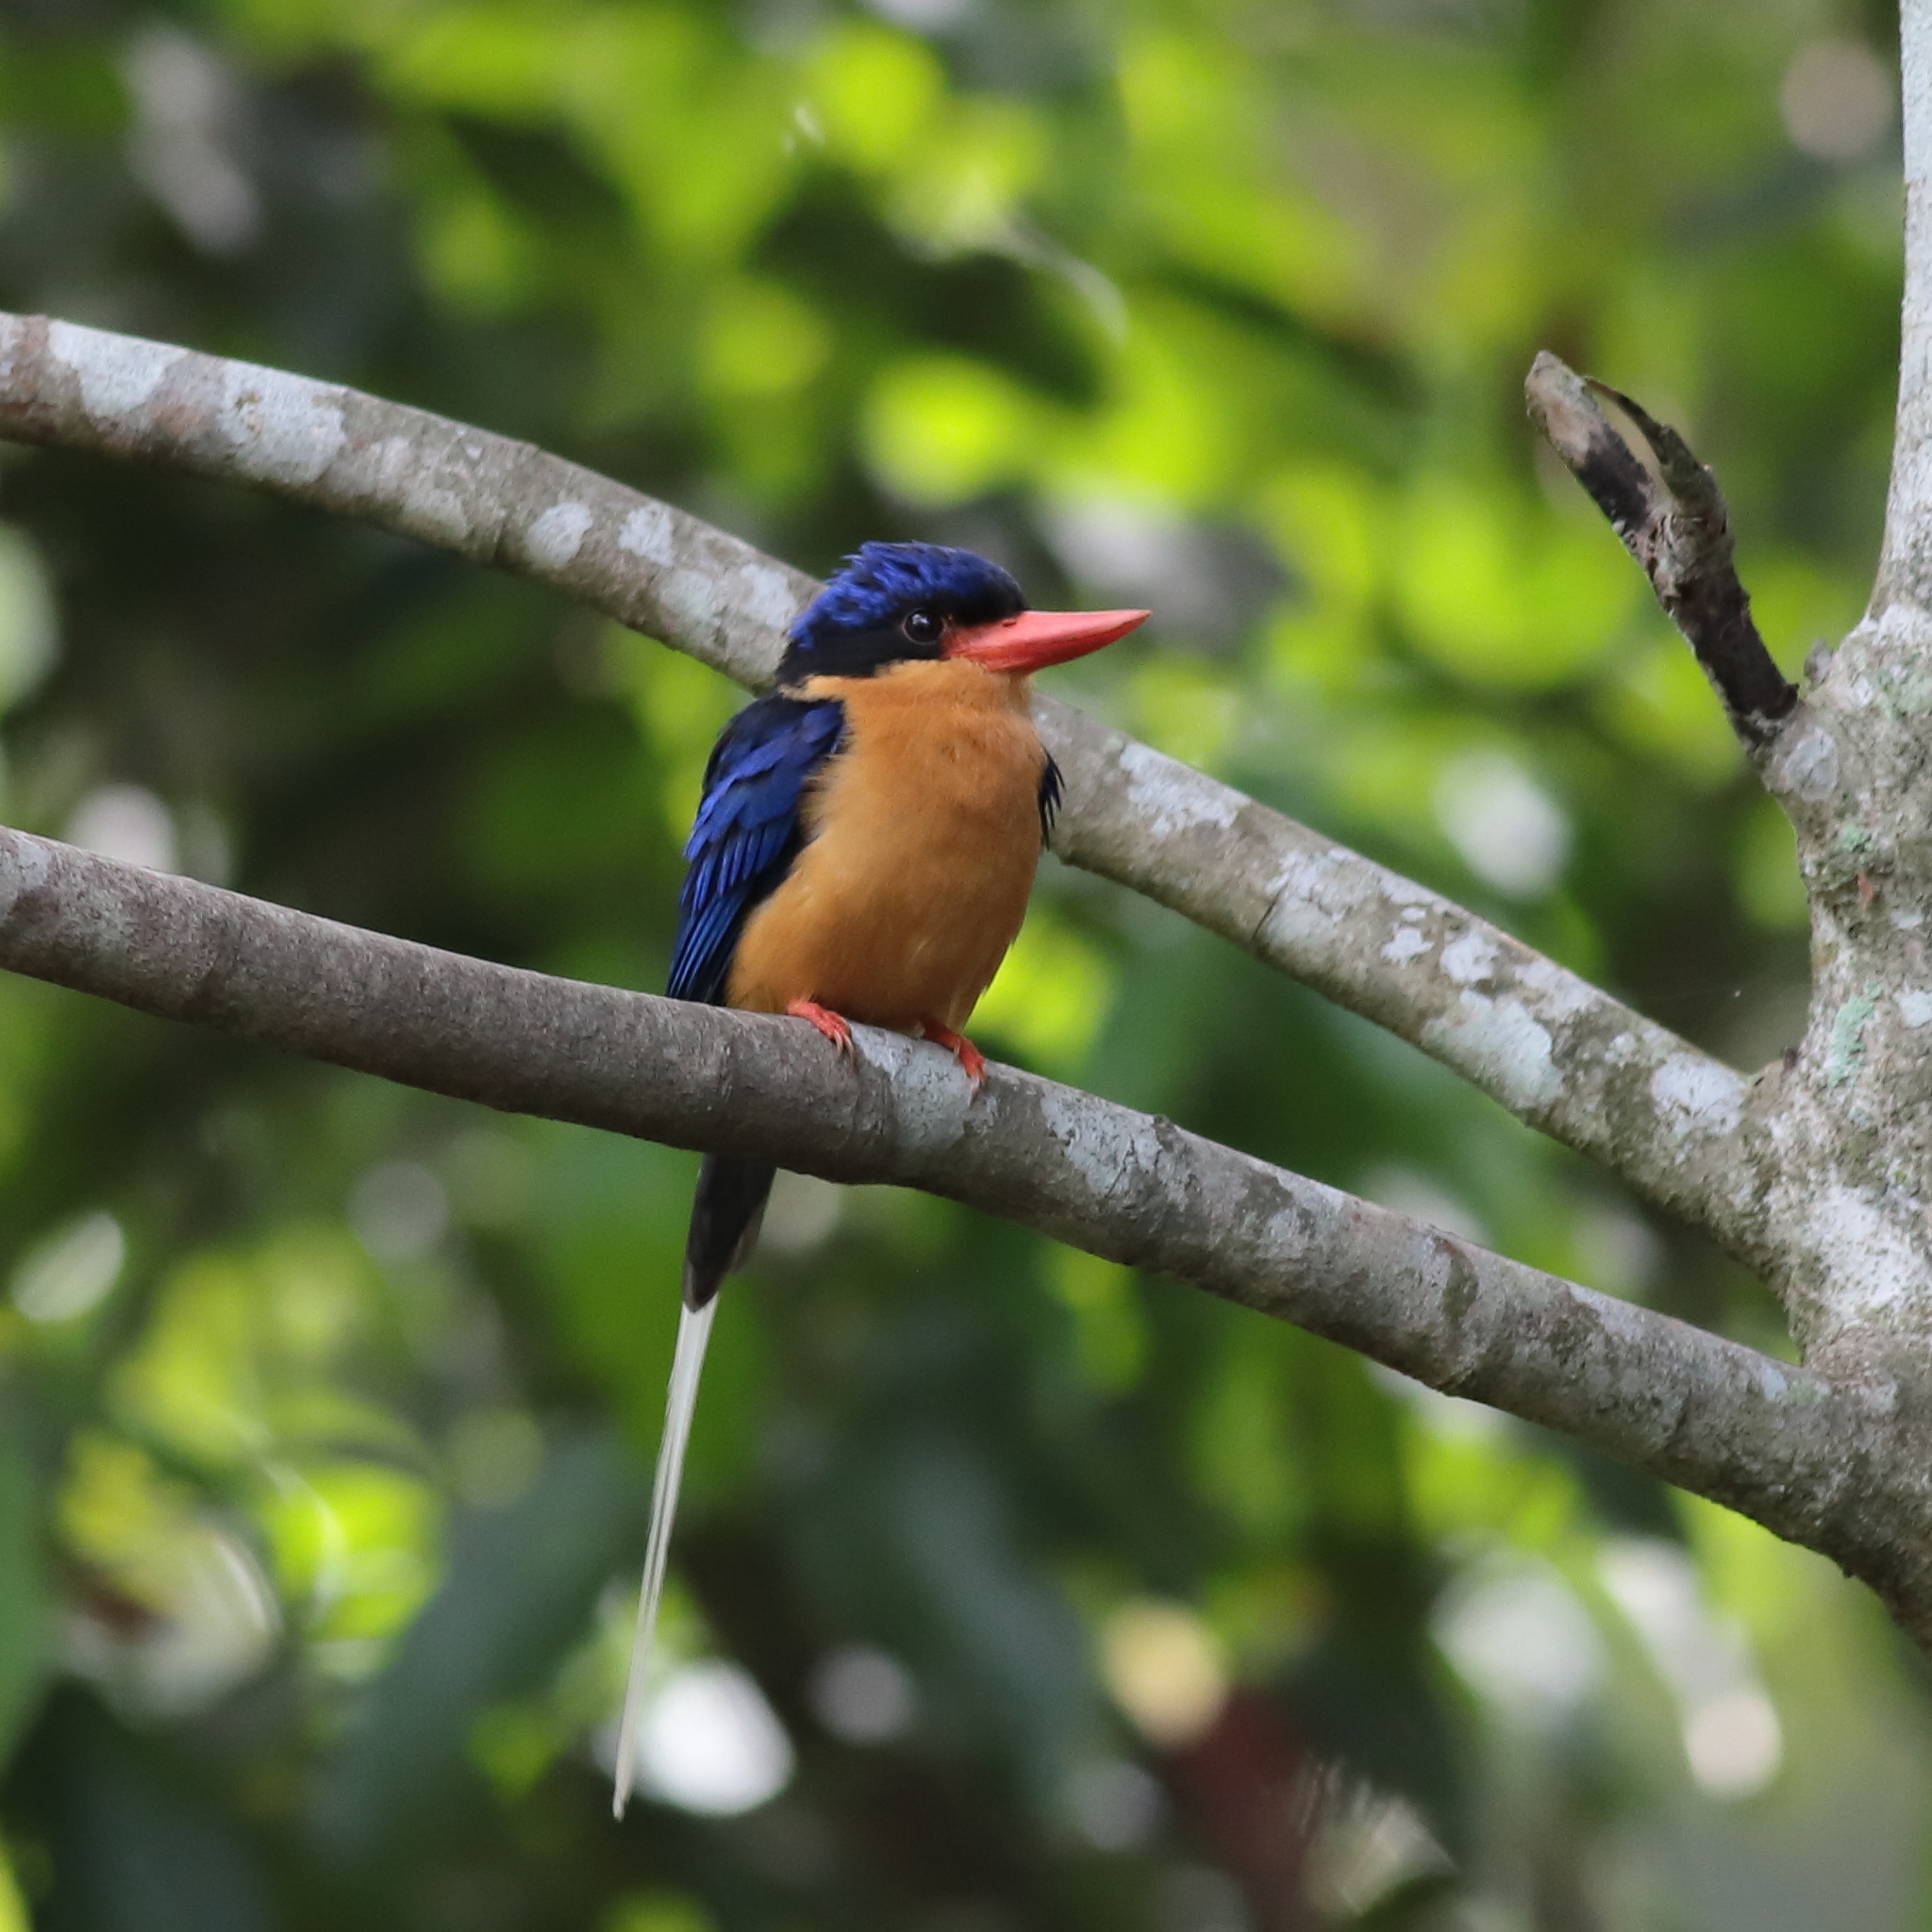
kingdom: Animalia
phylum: Chordata
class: Aves
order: Coraciiformes
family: Alcedinidae
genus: Tanysiptera
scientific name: Tanysiptera sylvia
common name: Buff-breasted paradise kingfisher
